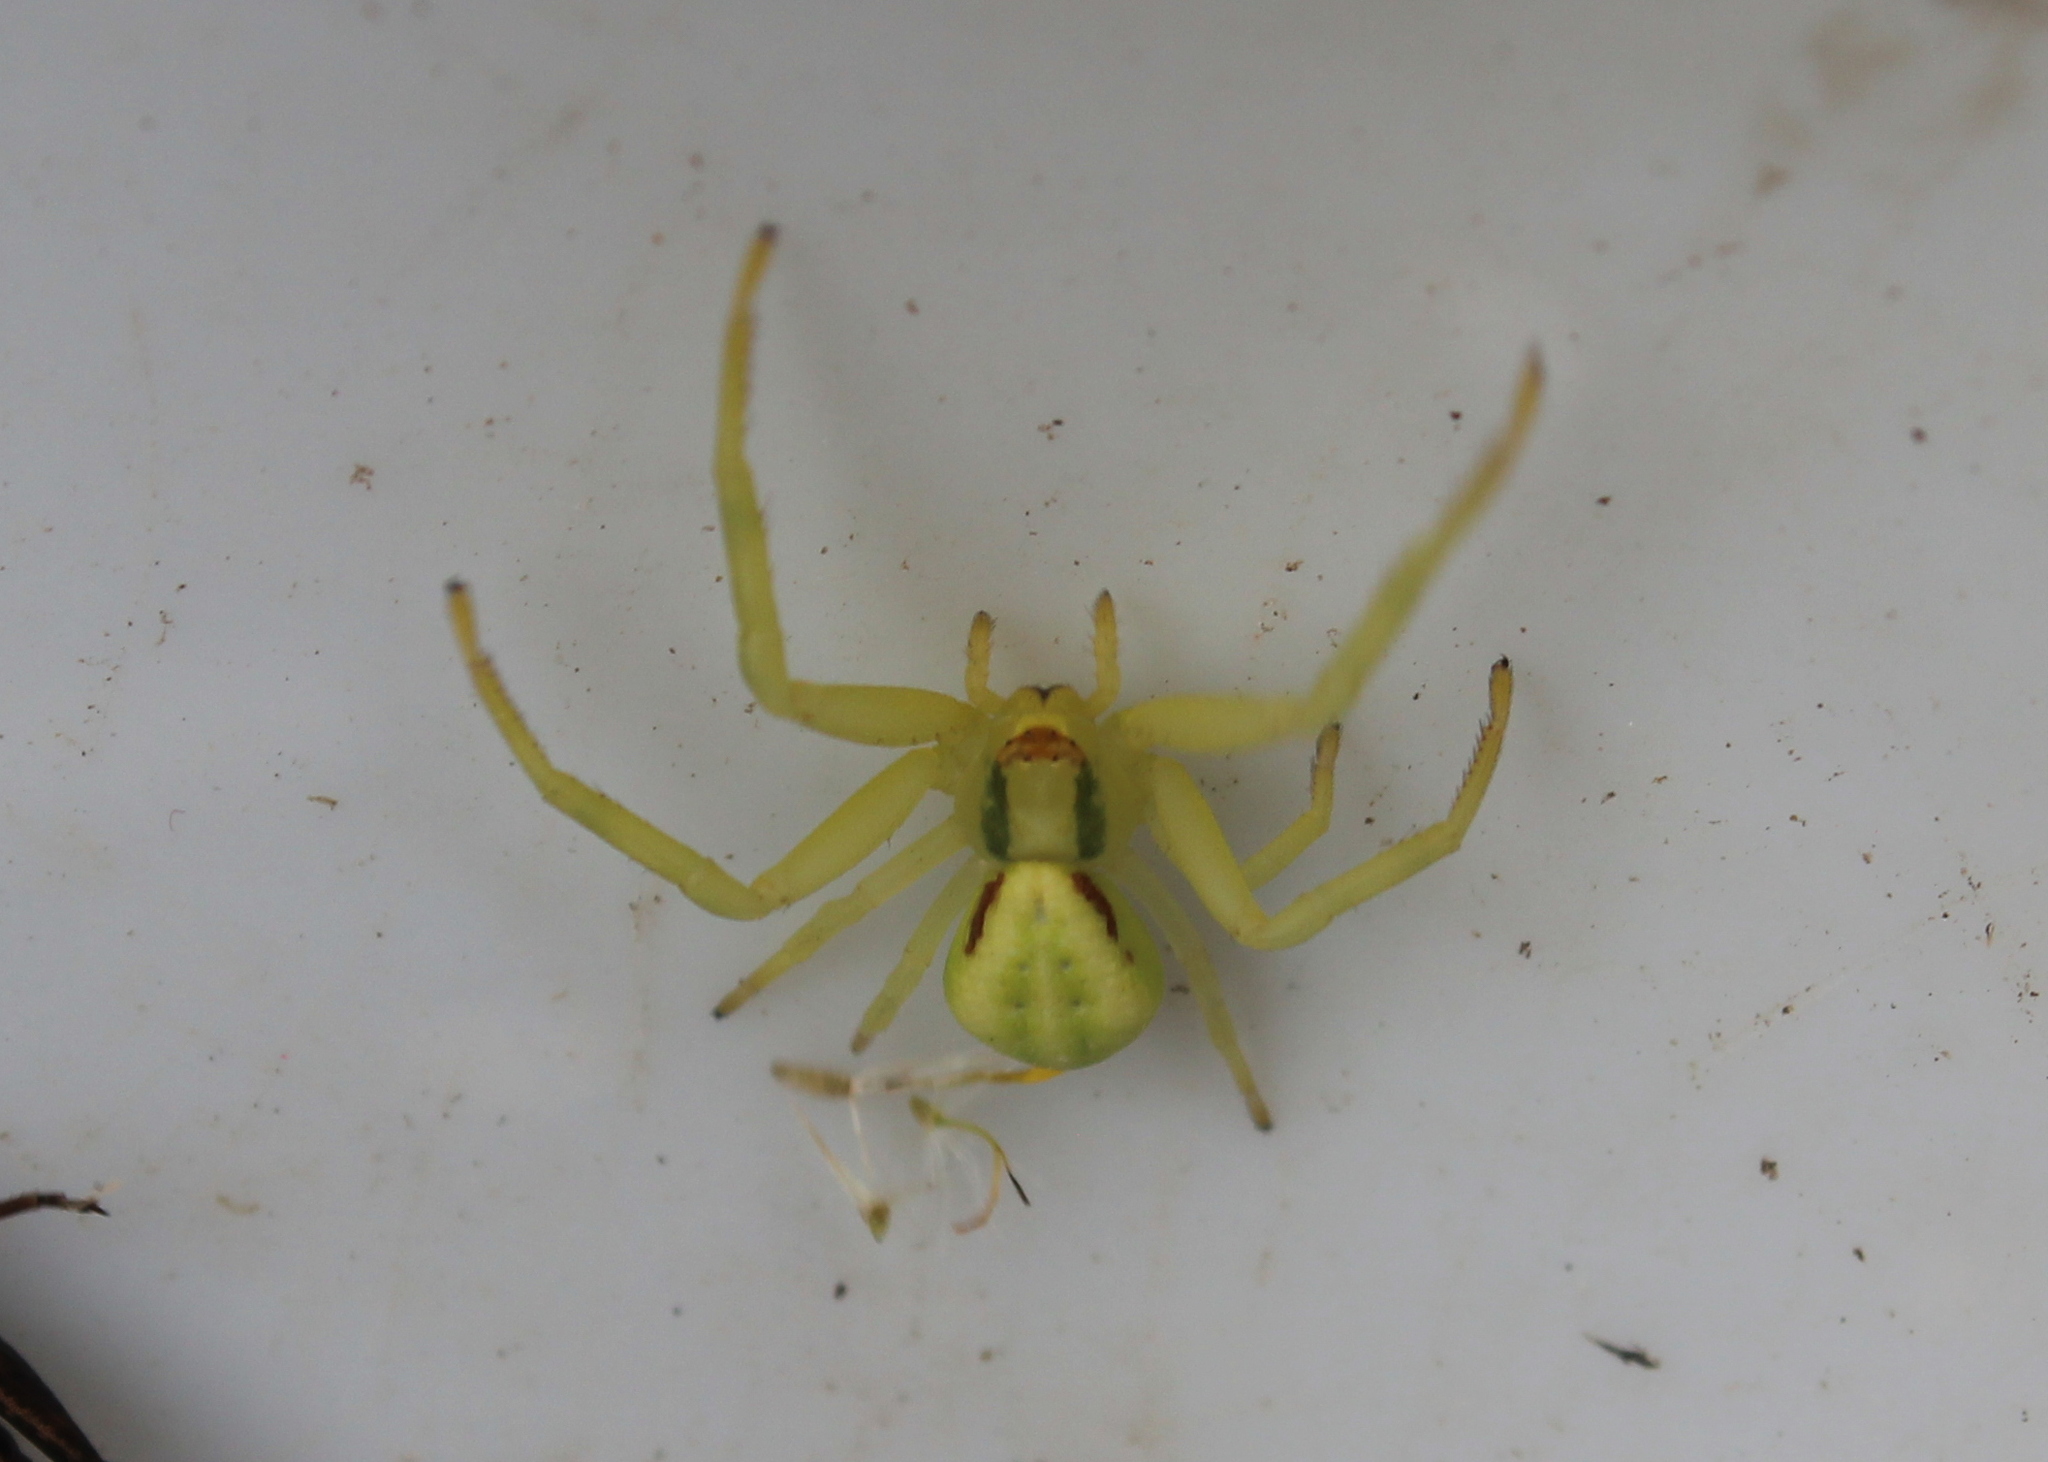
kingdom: Animalia
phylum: Arthropoda
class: Arachnida
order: Araneae
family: Thomisidae
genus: Misumena
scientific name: Misumena vatia
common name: Goldenrod crab spider
